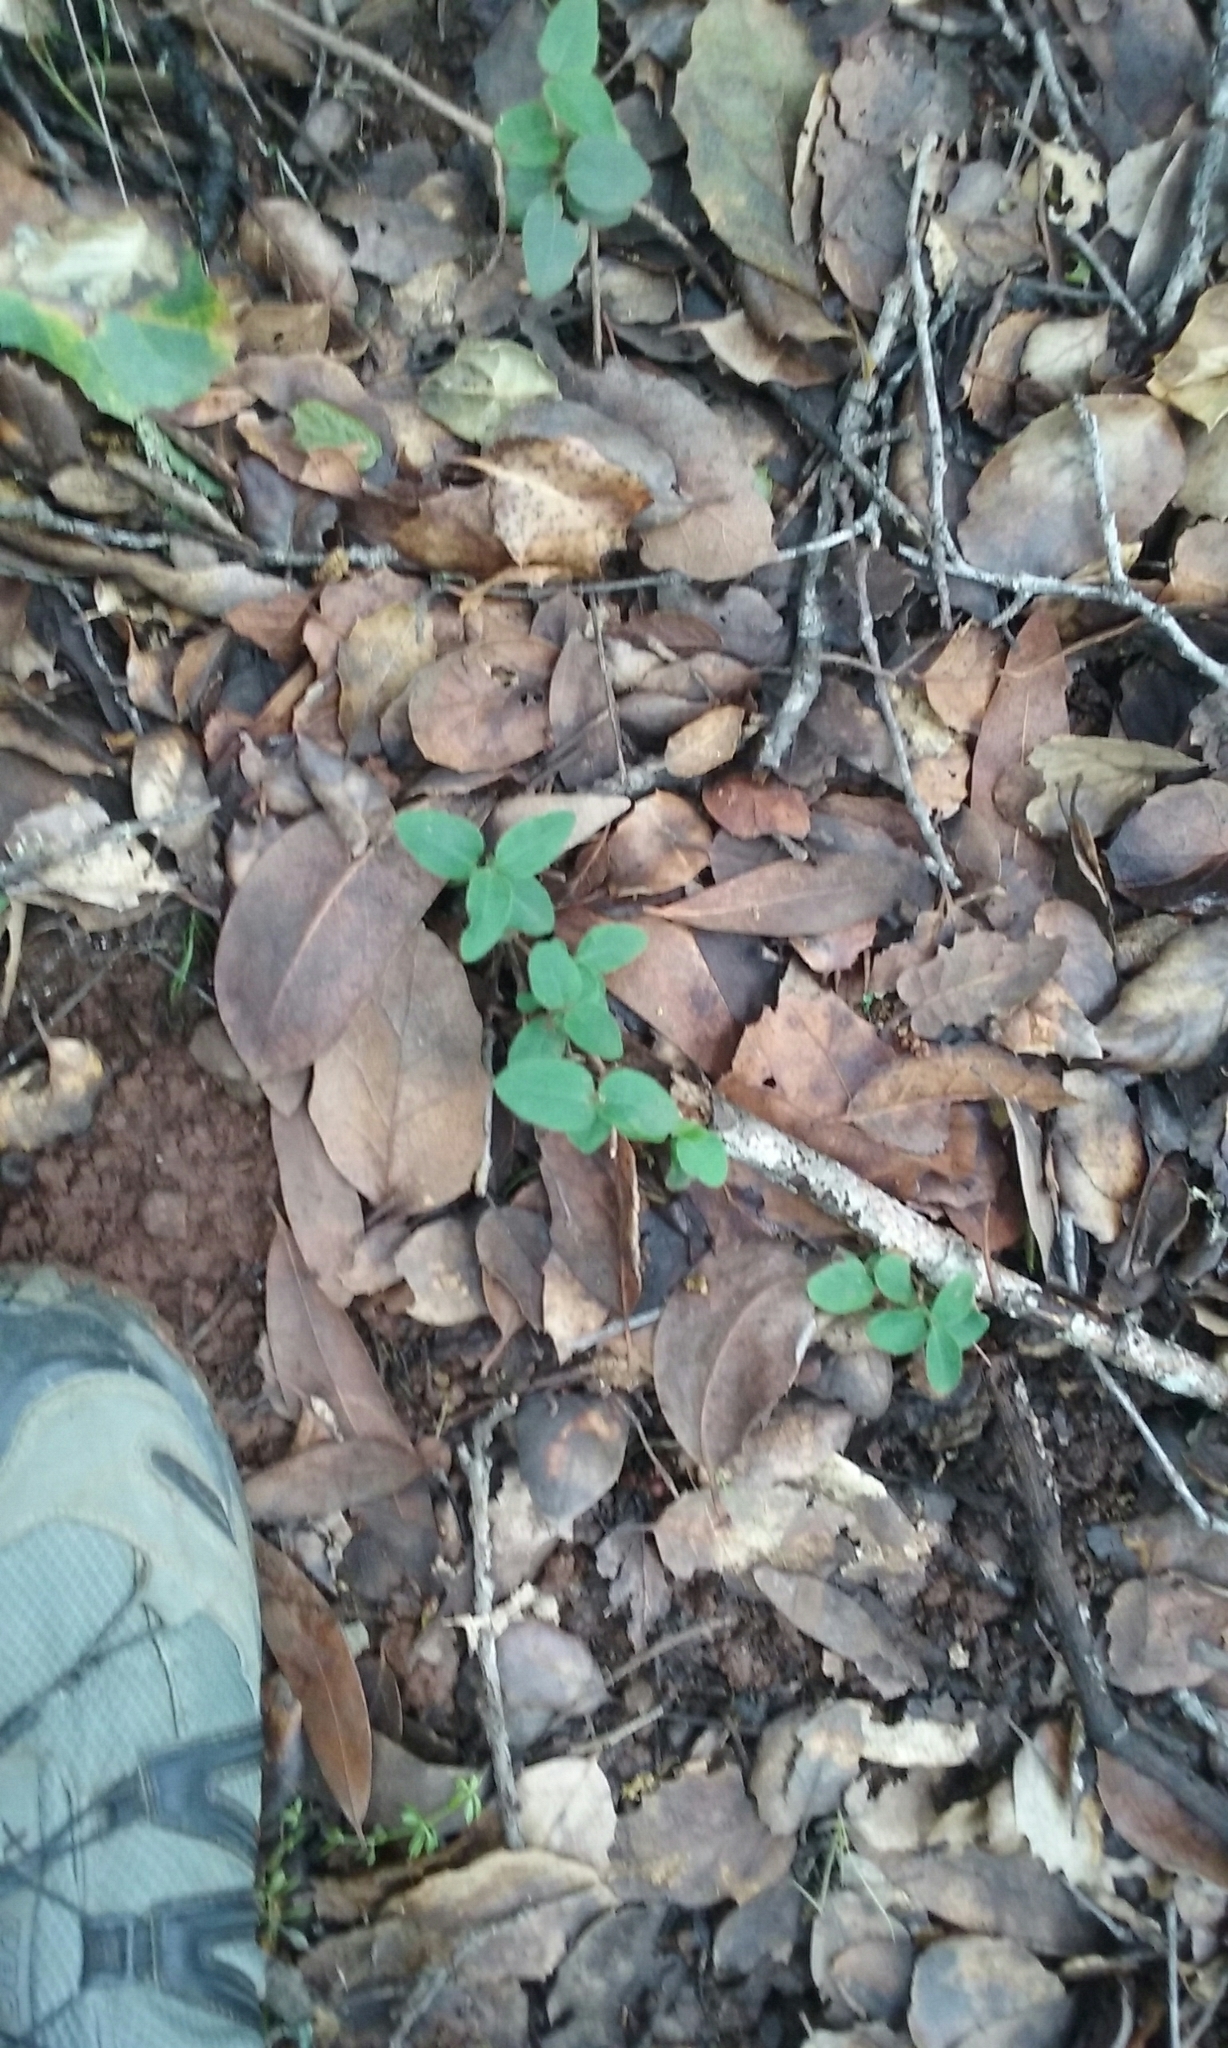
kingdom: Plantae
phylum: Tracheophyta
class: Magnoliopsida
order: Dipsacales
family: Caprifoliaceae
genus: Lonicera
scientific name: Lonicera hispidula
